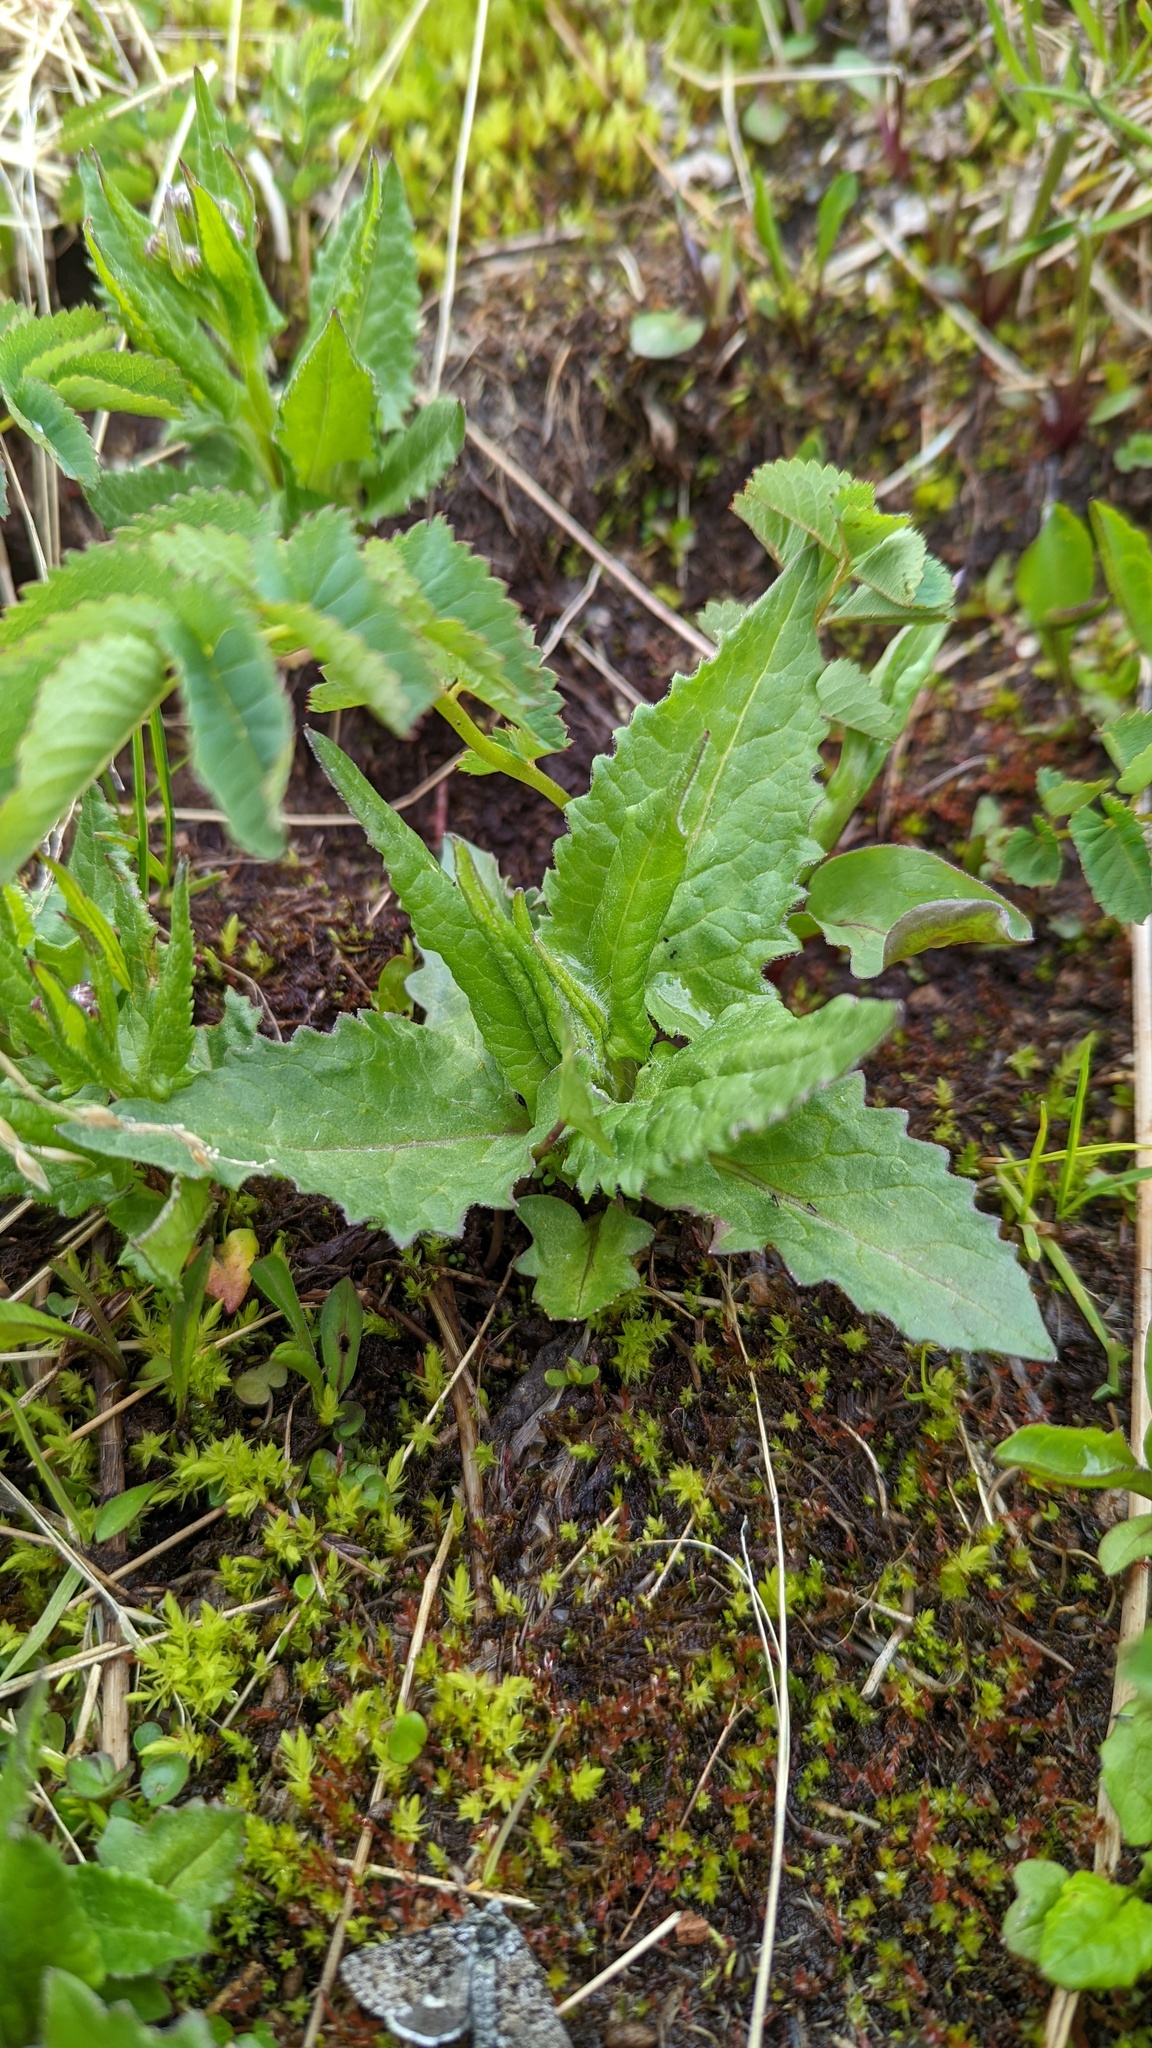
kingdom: Plantae
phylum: Tracheophyta
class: Magnoliopsida
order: Asterales
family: Asteraceae
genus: Senecio
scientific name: Senecio triangularis
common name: Arrowleaf butterweed
